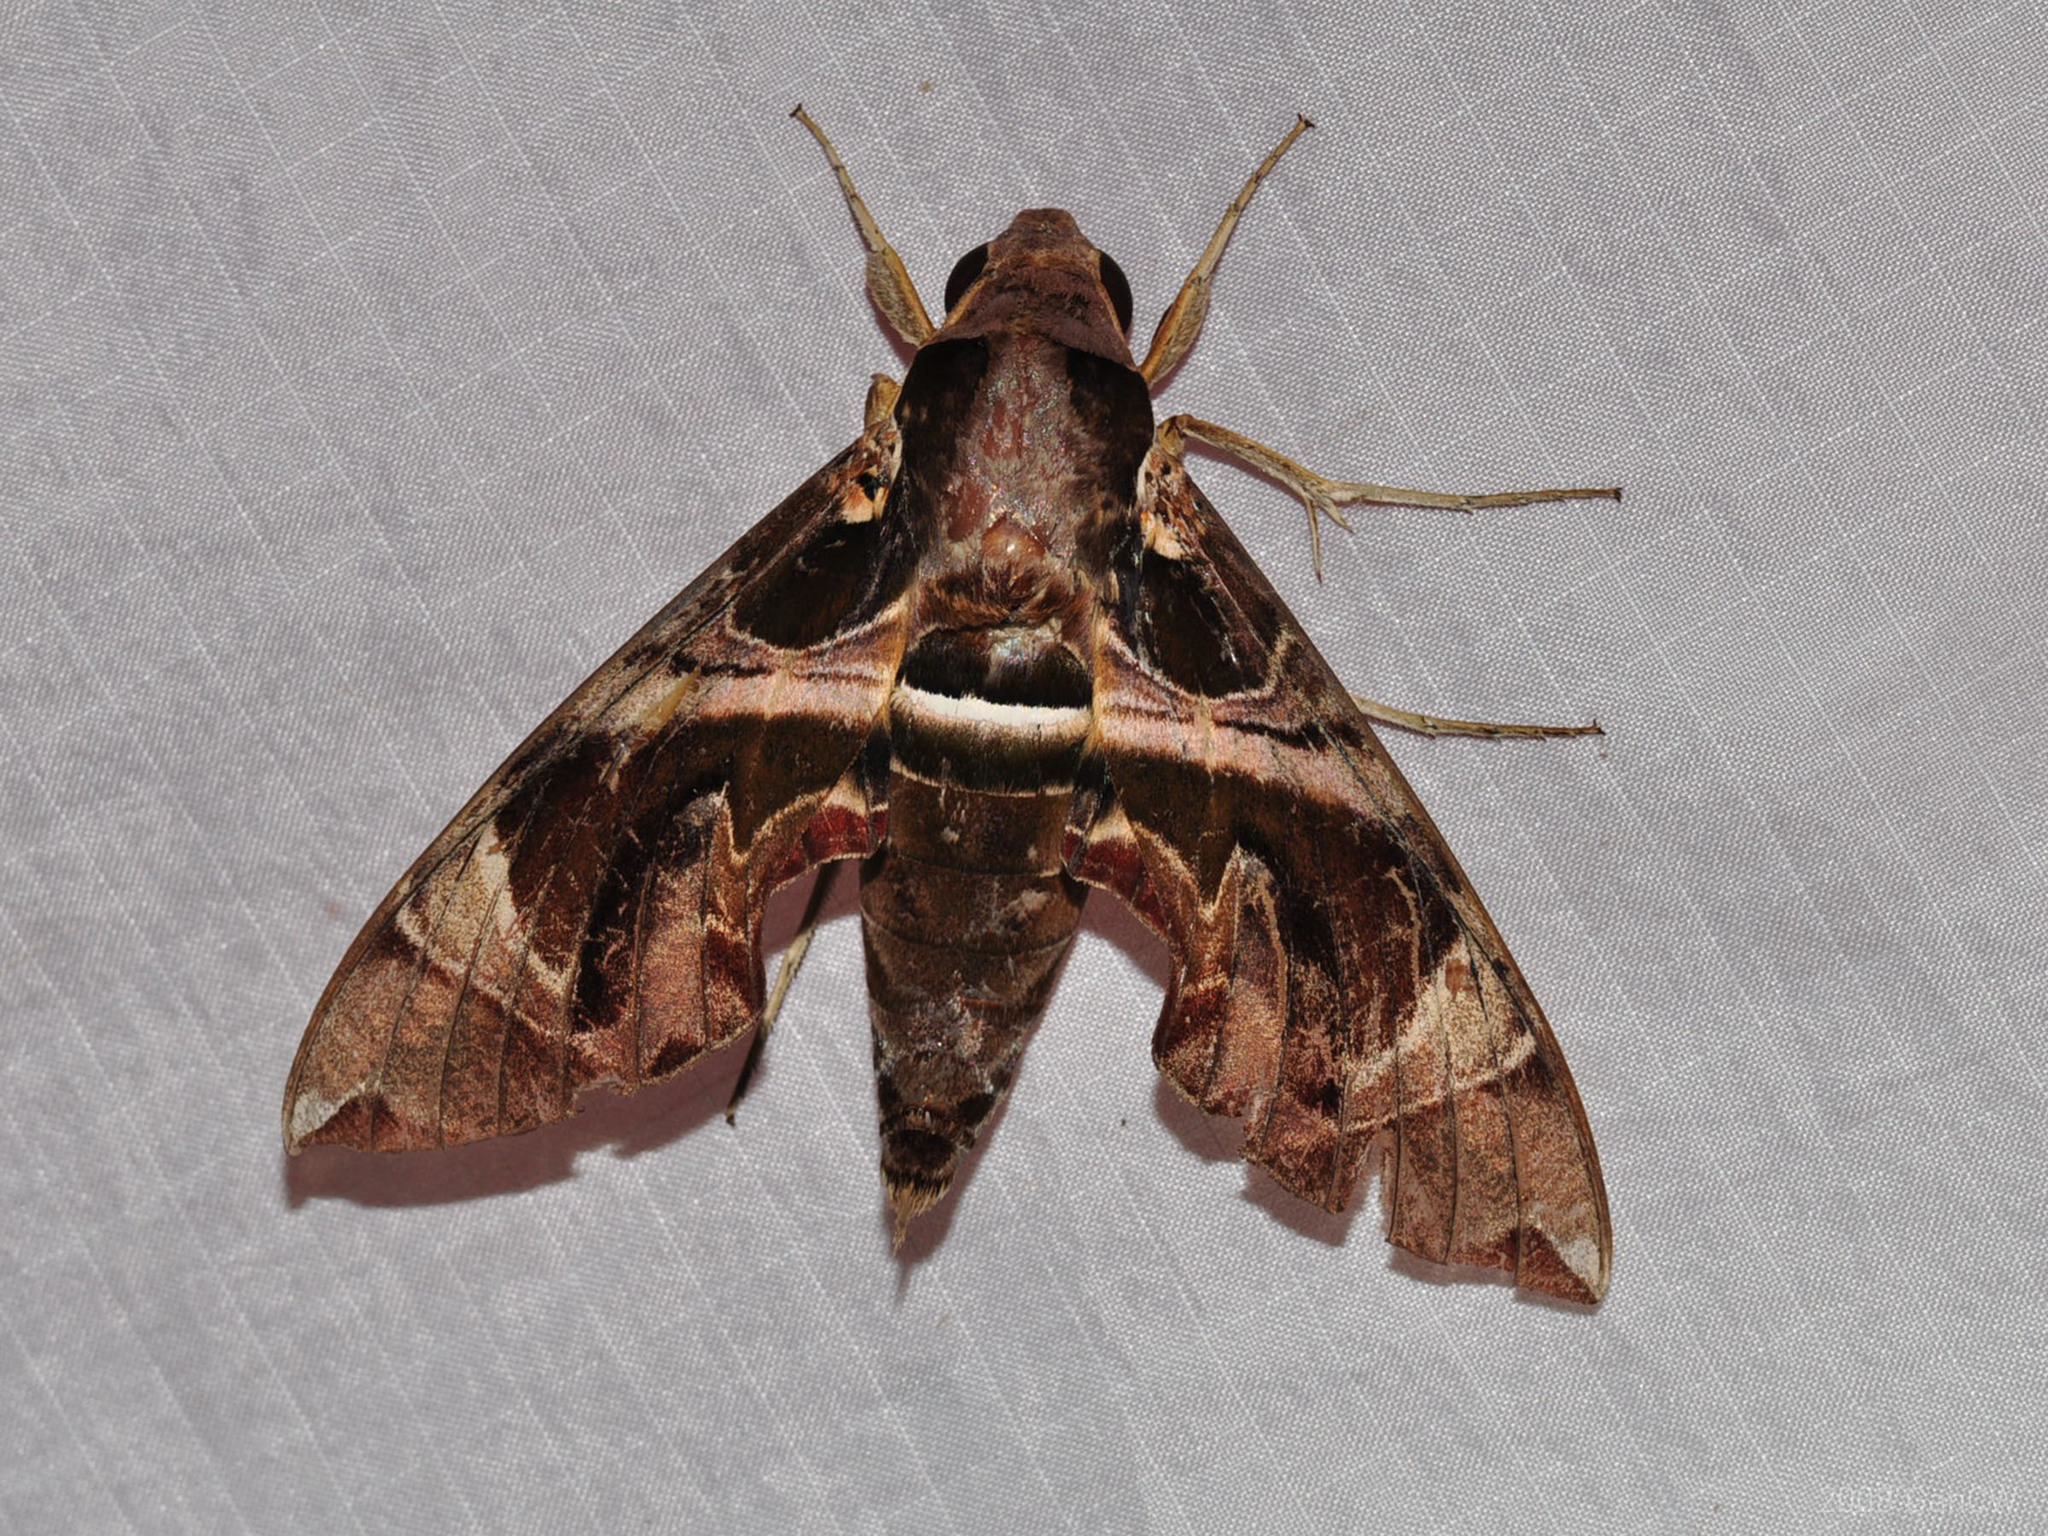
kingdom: Animalia
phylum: Arthropoda
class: Insecta
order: Lepidoptera
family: Sphingidae
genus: Daphnis
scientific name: Daphnis hypothous
